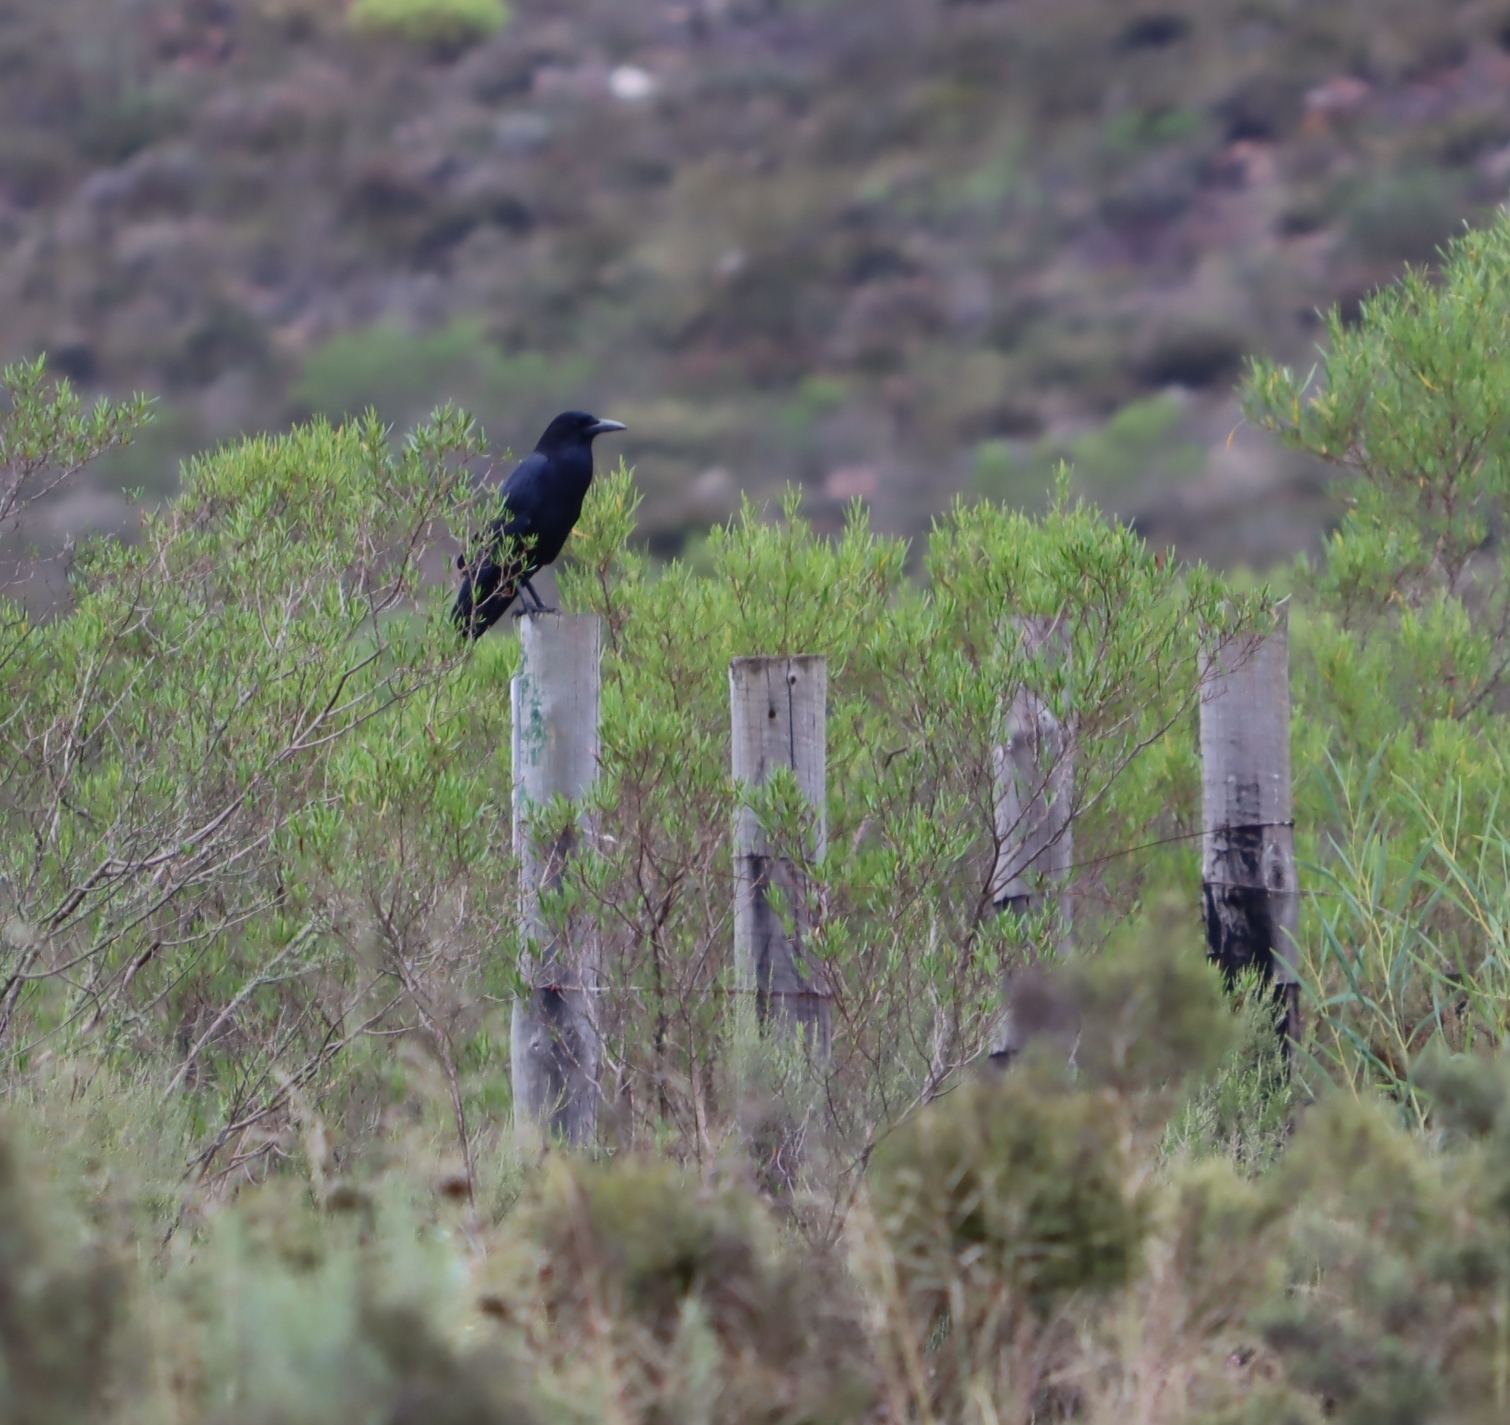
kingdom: Animalia
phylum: Chordata
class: Aves
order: Passeriformes
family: Corvidae
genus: Corvus
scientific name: Corvus capensis
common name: Cape crow
